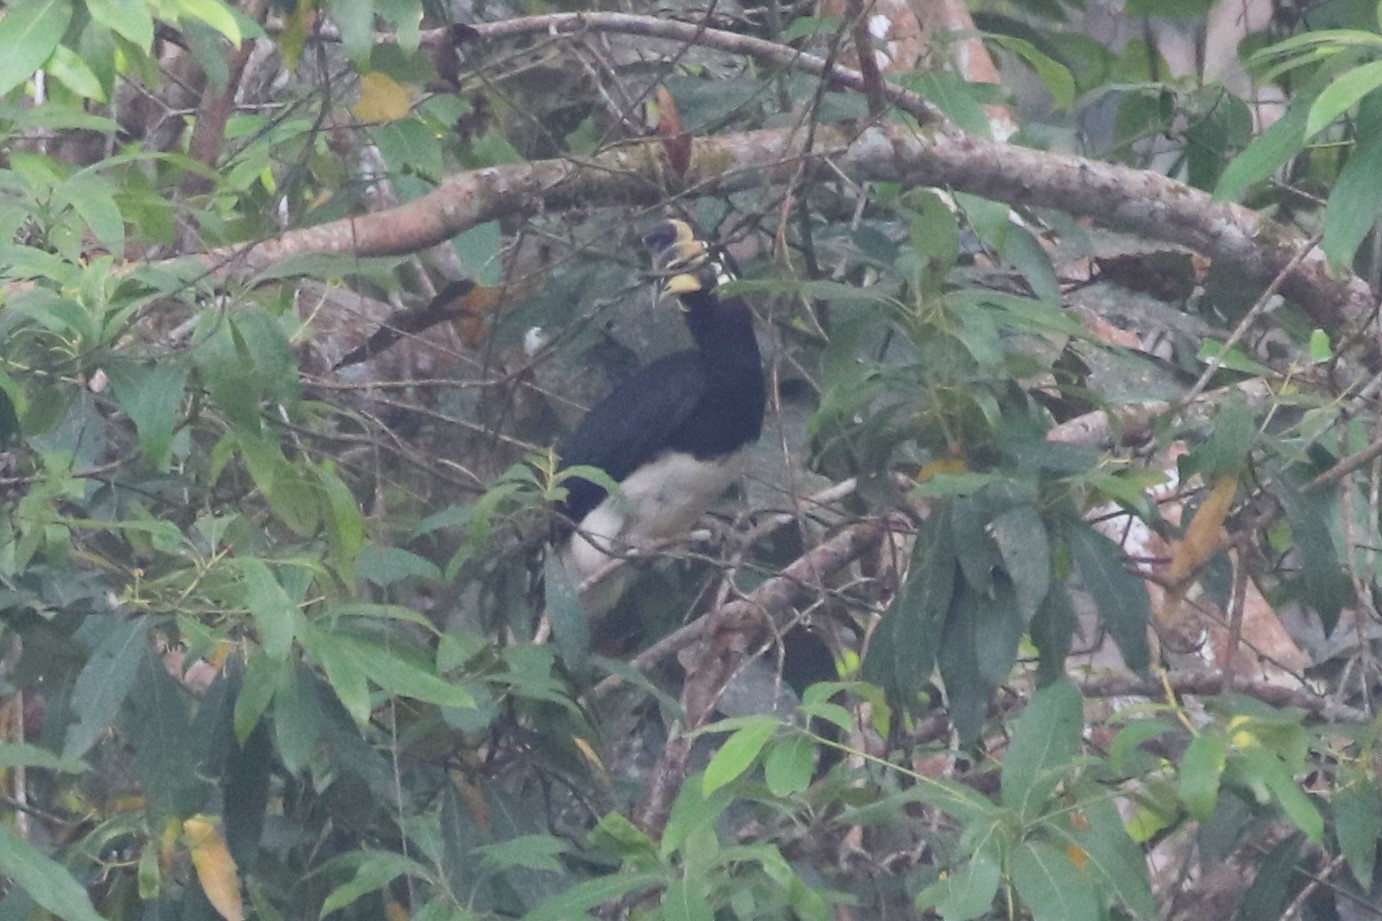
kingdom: Animalia
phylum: Chordata
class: Aves
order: Bucerotiformes
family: Bucerotidae
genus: Anthracoceros
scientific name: Anthracoceros albirostris
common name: Oriental pied-hornbill
